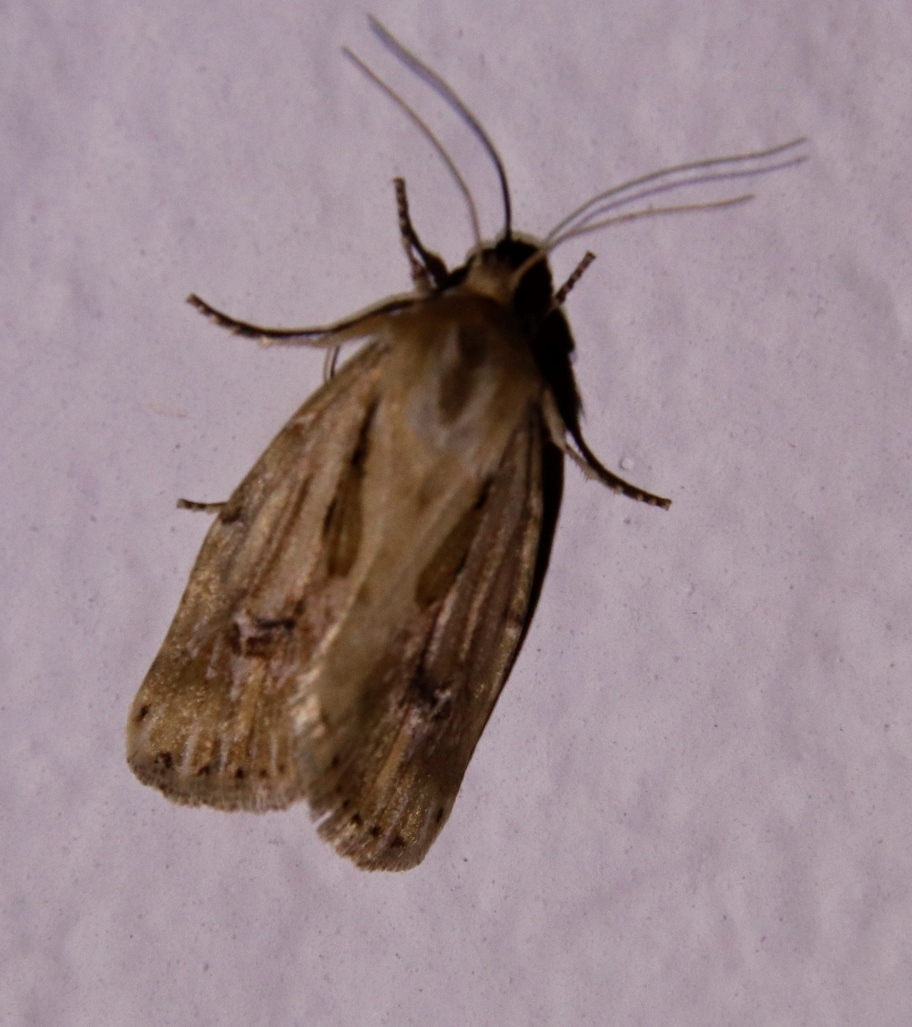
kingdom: Animalia
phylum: Arthropoda
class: Insecta
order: Lepidoptera
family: Noctuidae
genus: Heliocheilus
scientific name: Heliocheilus stigmatia
